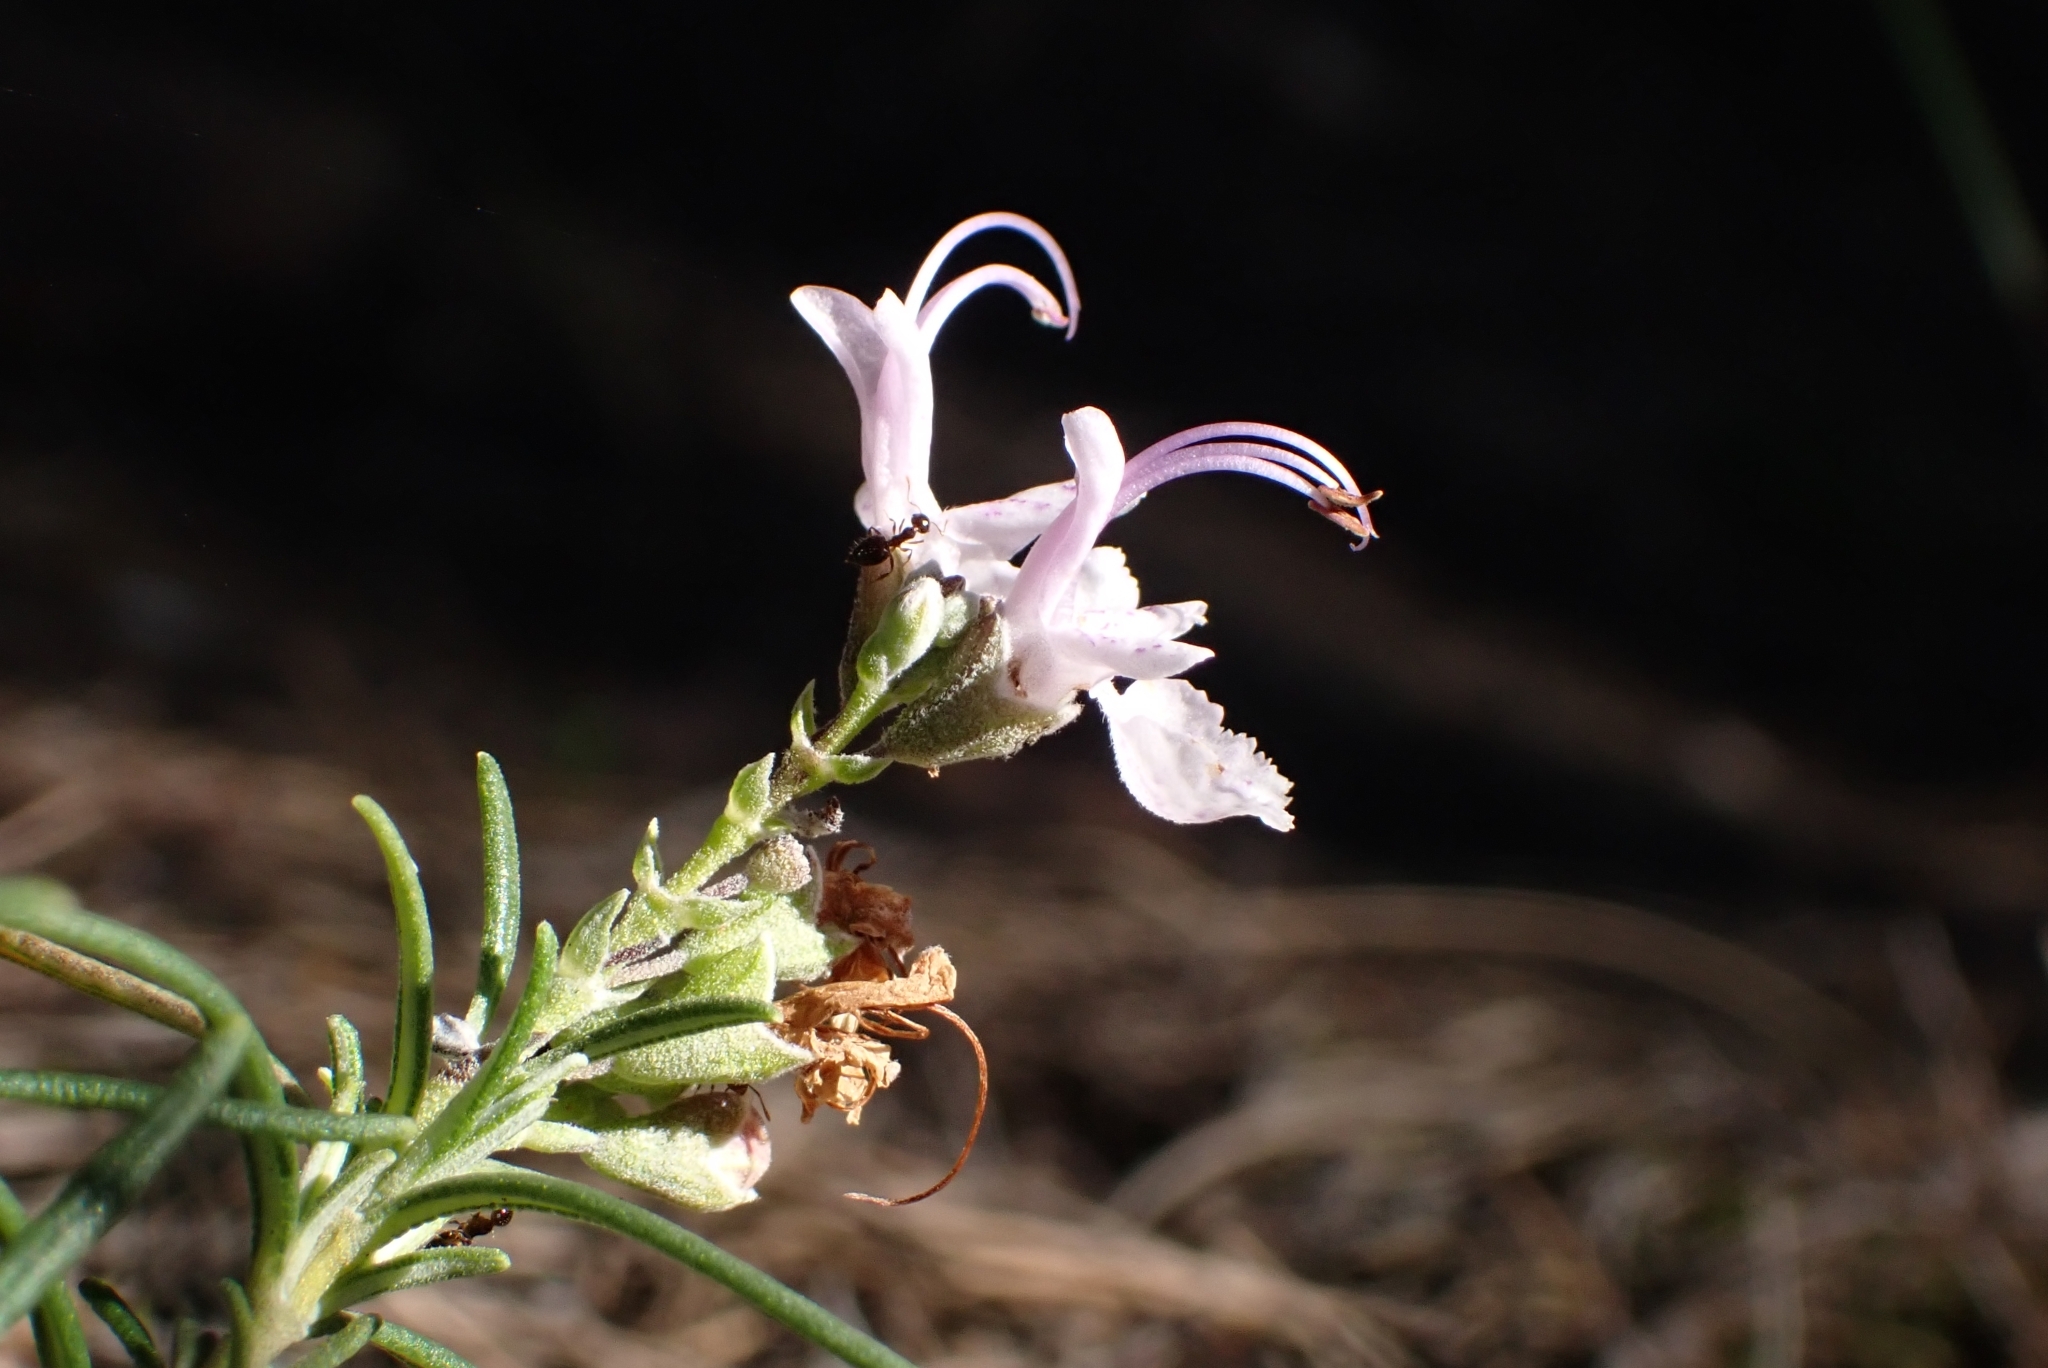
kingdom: Plantae
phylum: Tracheophyta
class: Magnoliopsida
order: Lamiales
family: Lamiaceae
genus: Salvia
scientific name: Salvia rosmarinus
